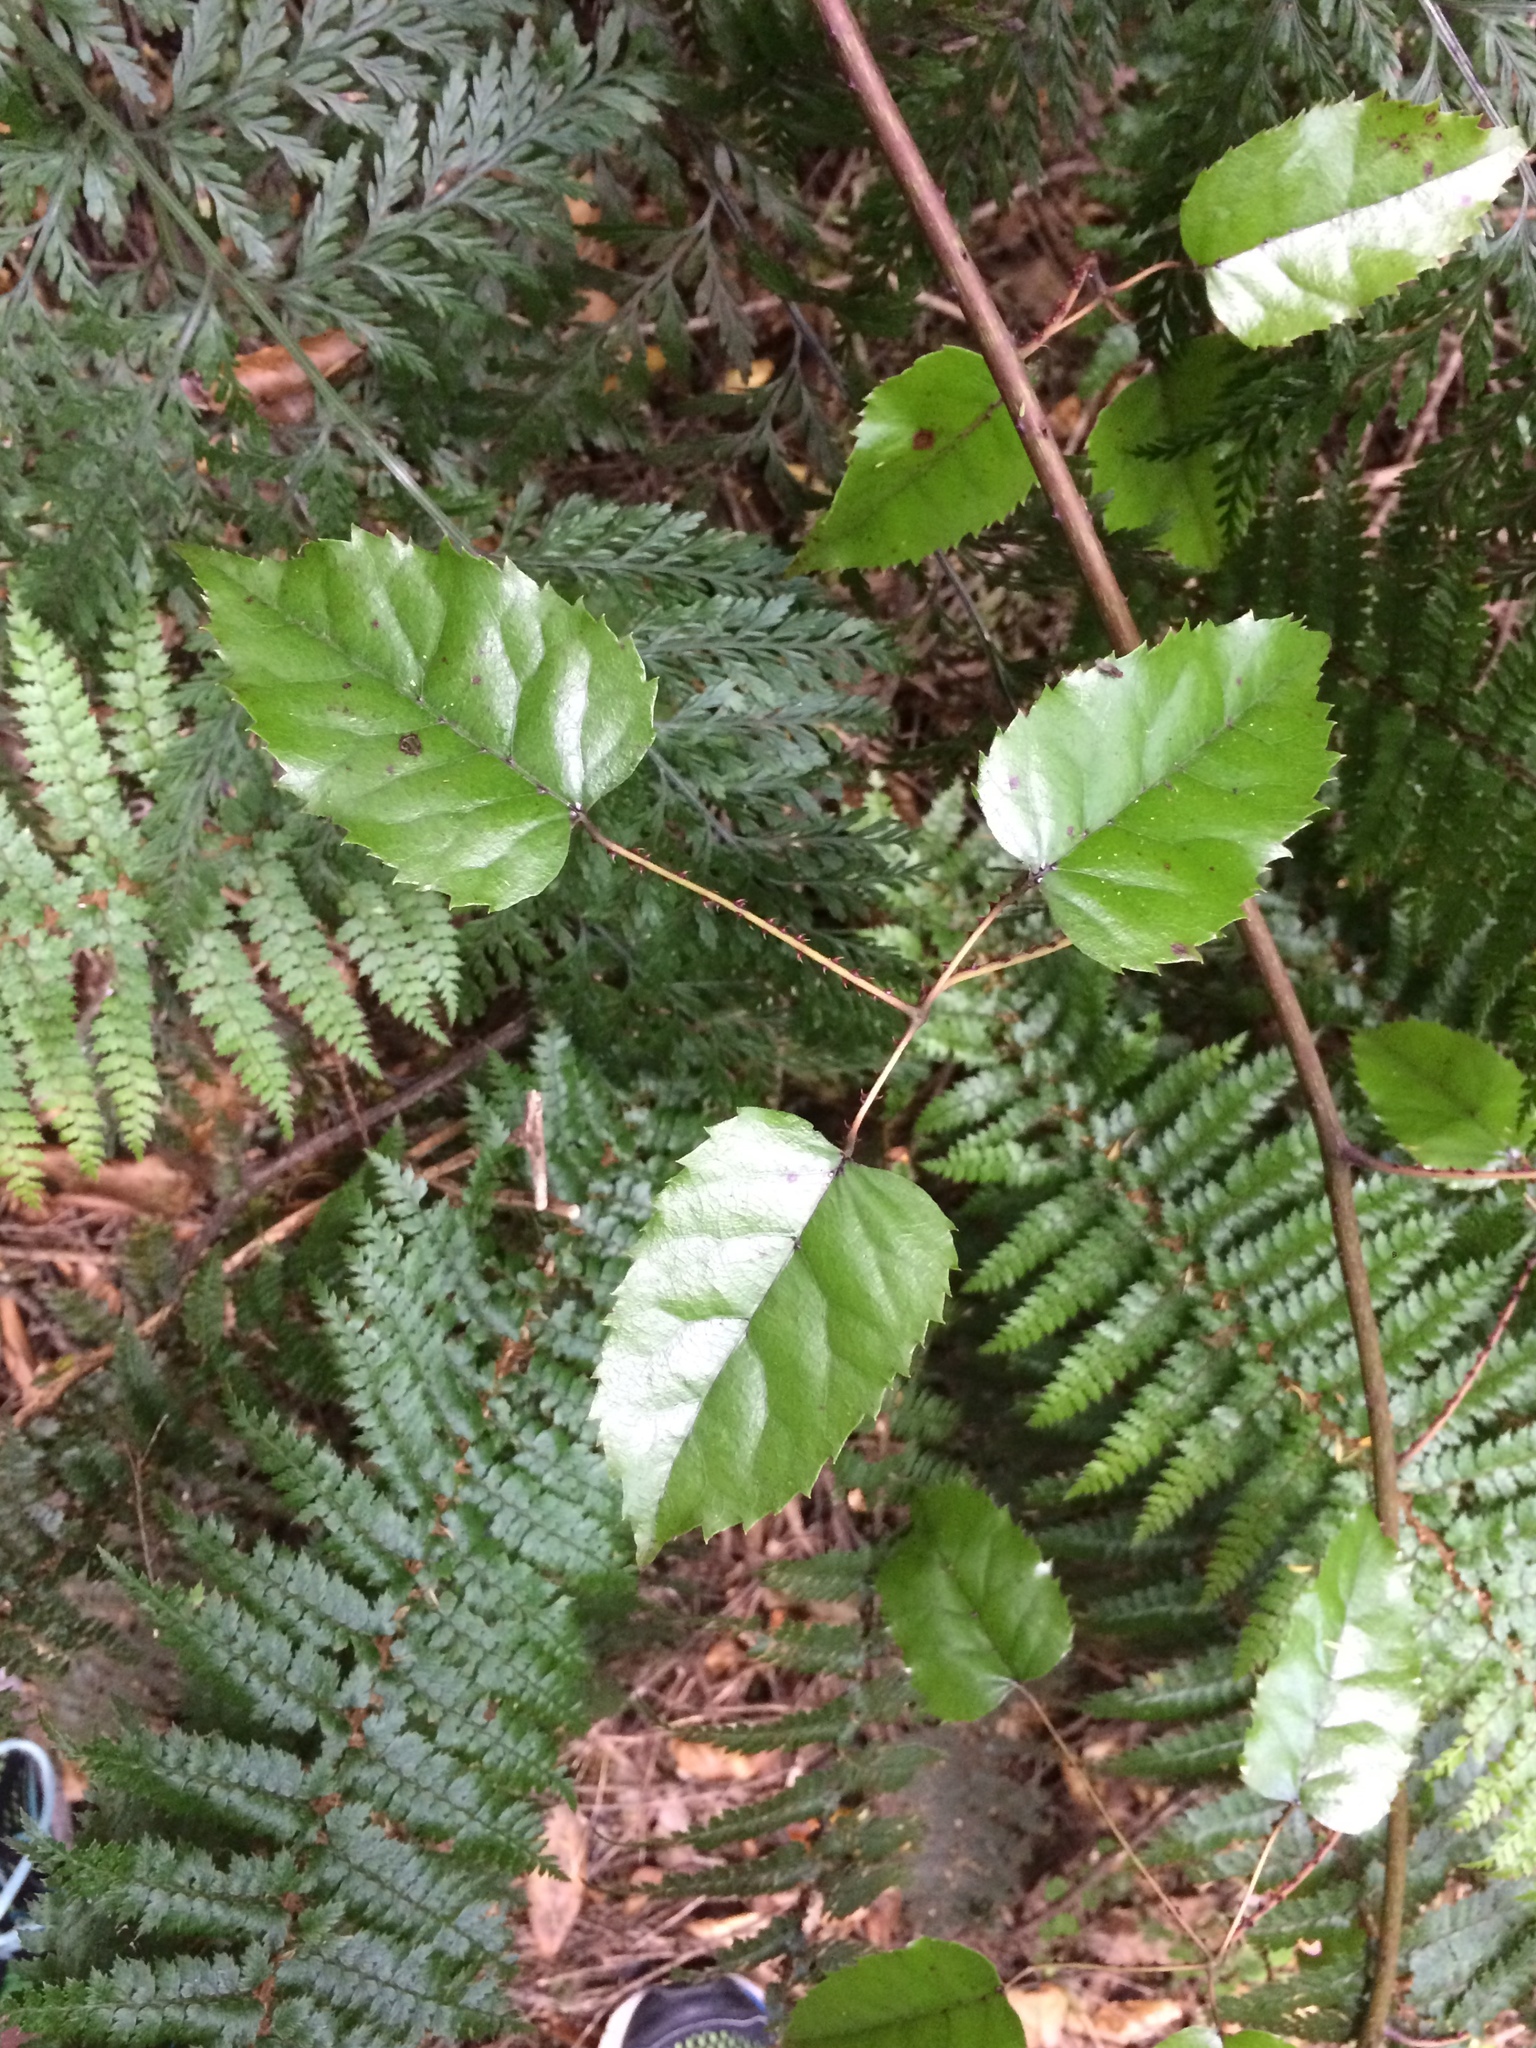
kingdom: Plantae
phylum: Tracheophyta
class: Magnoliopsida
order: Rosales
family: Rosaceae
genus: Rubus
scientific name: Rubus cissoides
